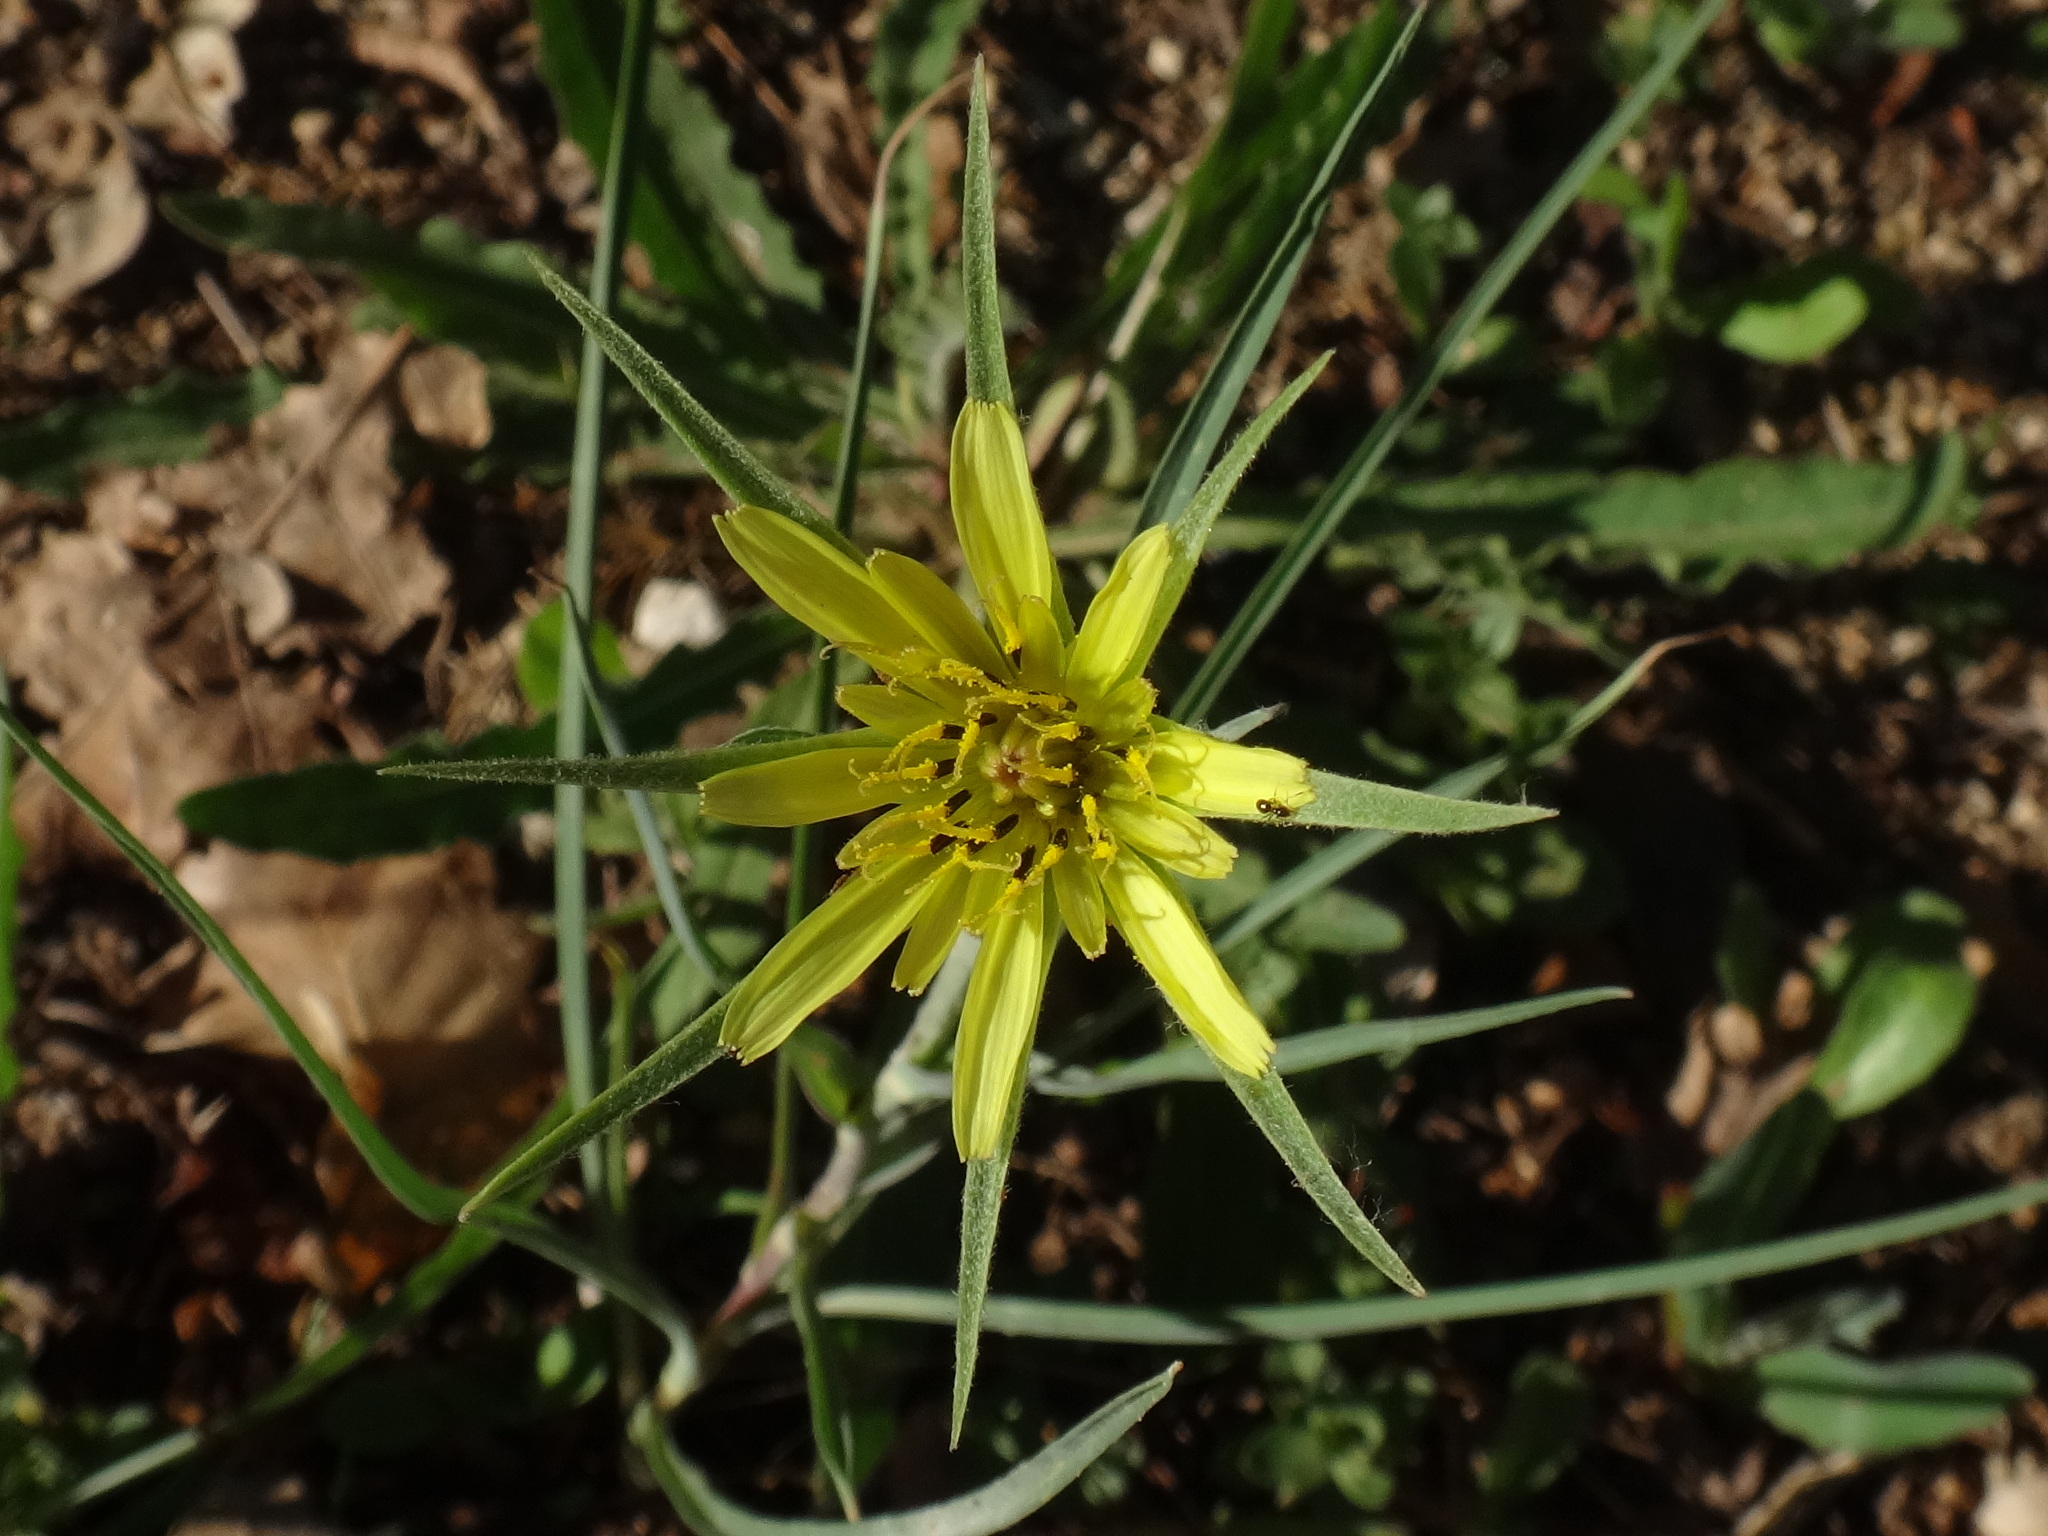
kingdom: Plantae
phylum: Tracheophyta
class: Magnoliopsida
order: Asterales
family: Asteraceae
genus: Tragopogon
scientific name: Tragopogon dubius
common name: Yellow salsify
